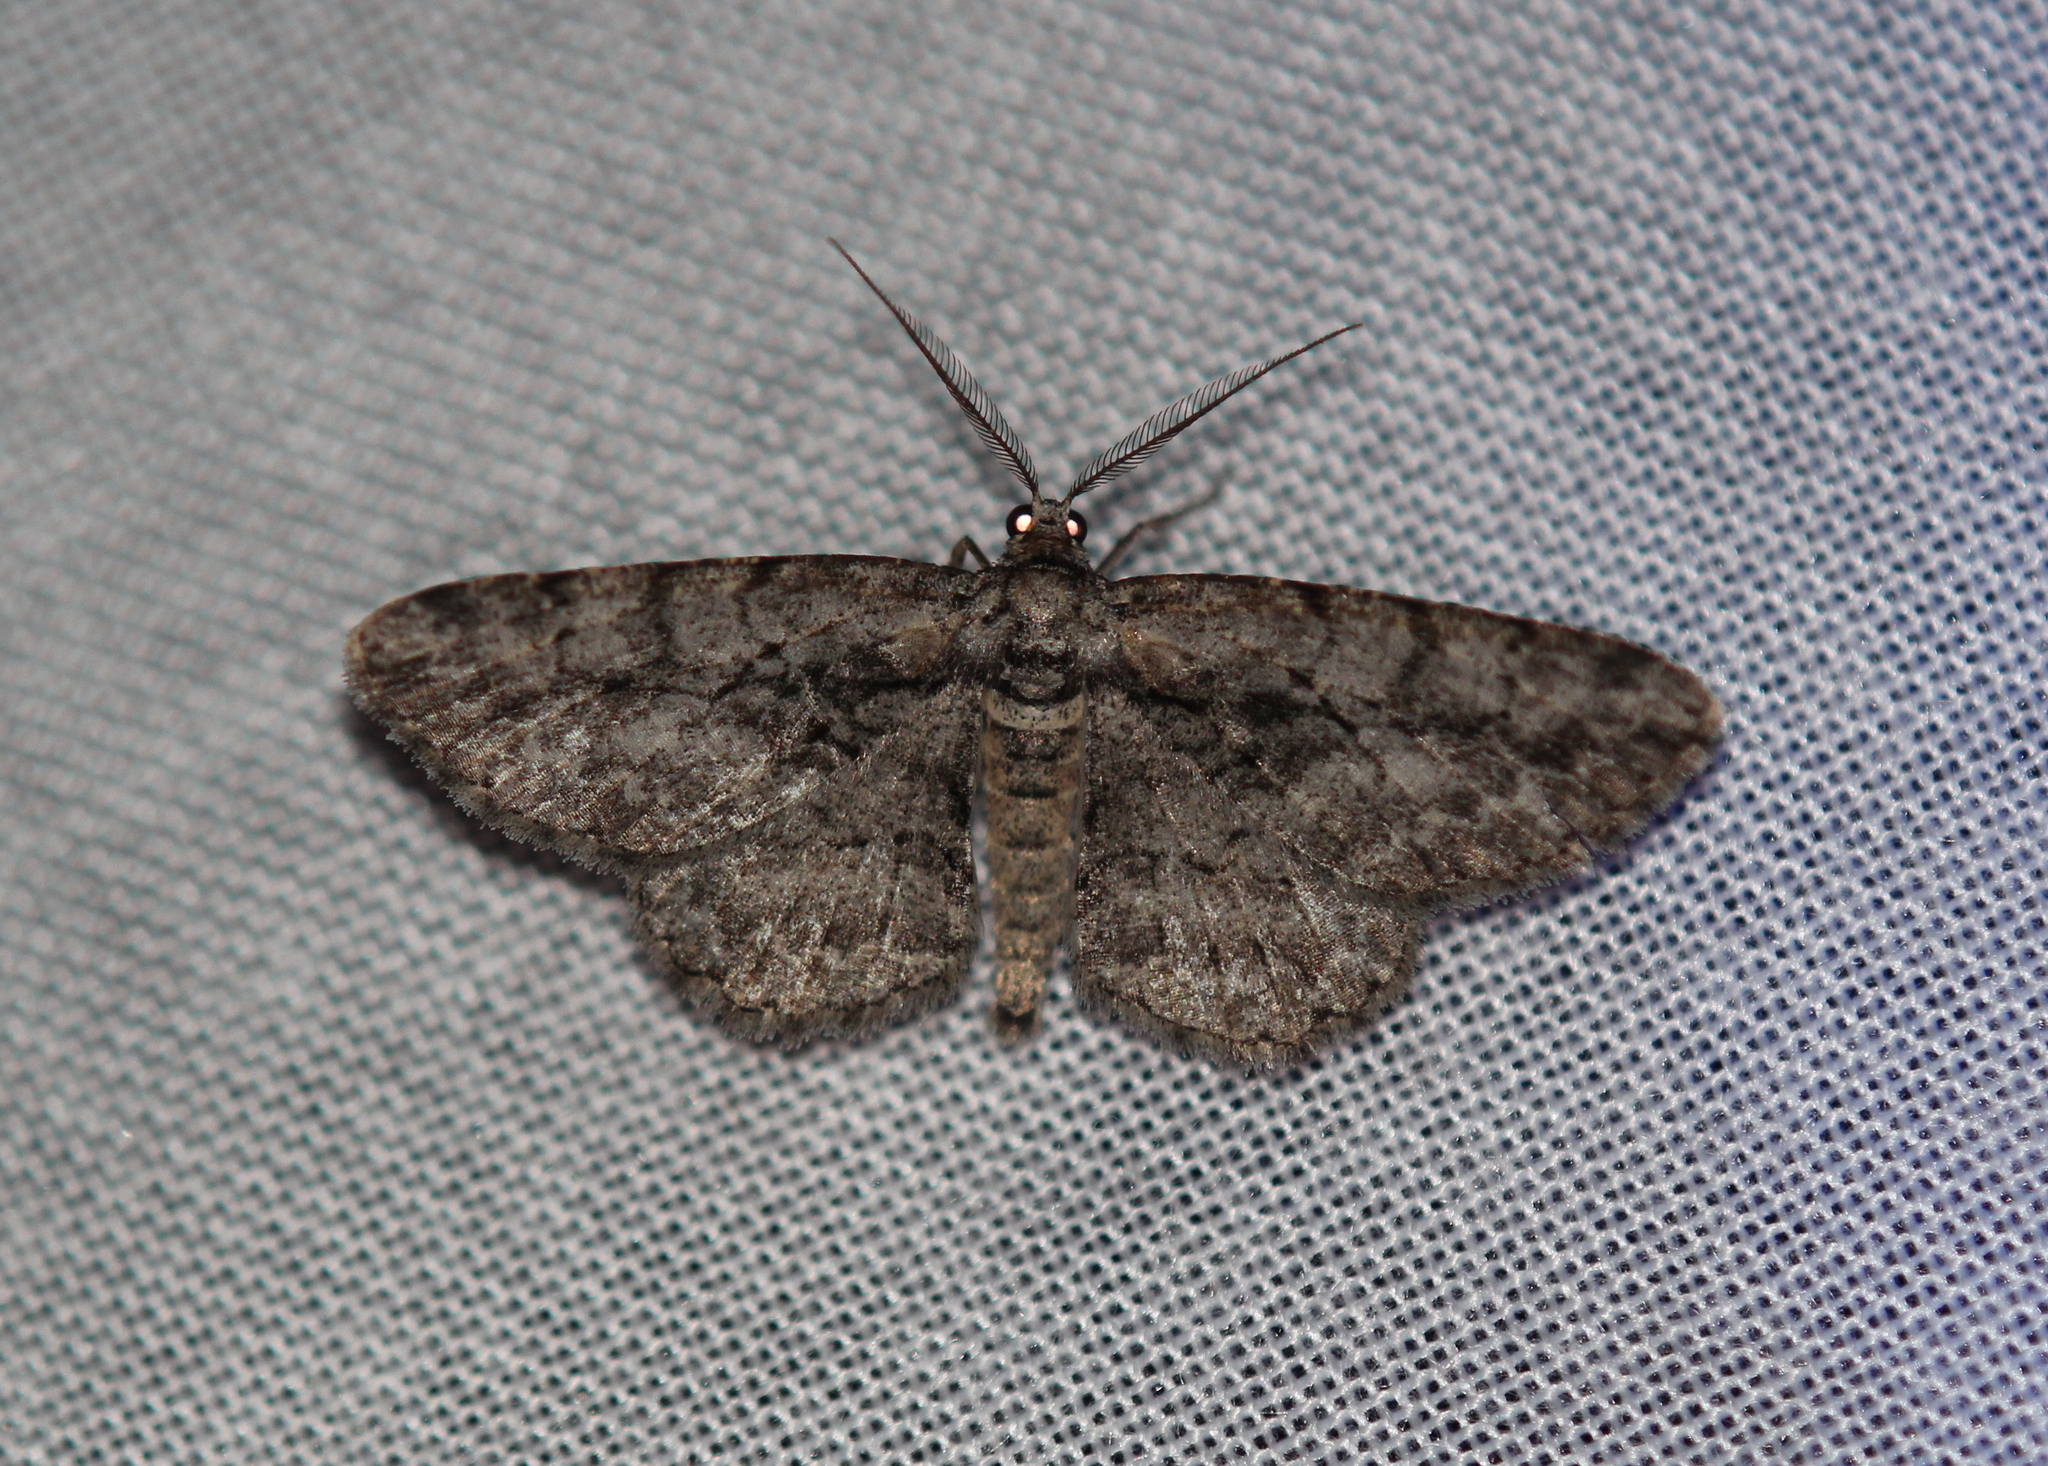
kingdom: Animalia
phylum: Arthropoda
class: Insecta
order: Lepidoptera
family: Geometridae
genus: Anavitrinella
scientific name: Anavitrinella pampinaria
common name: Common gray
